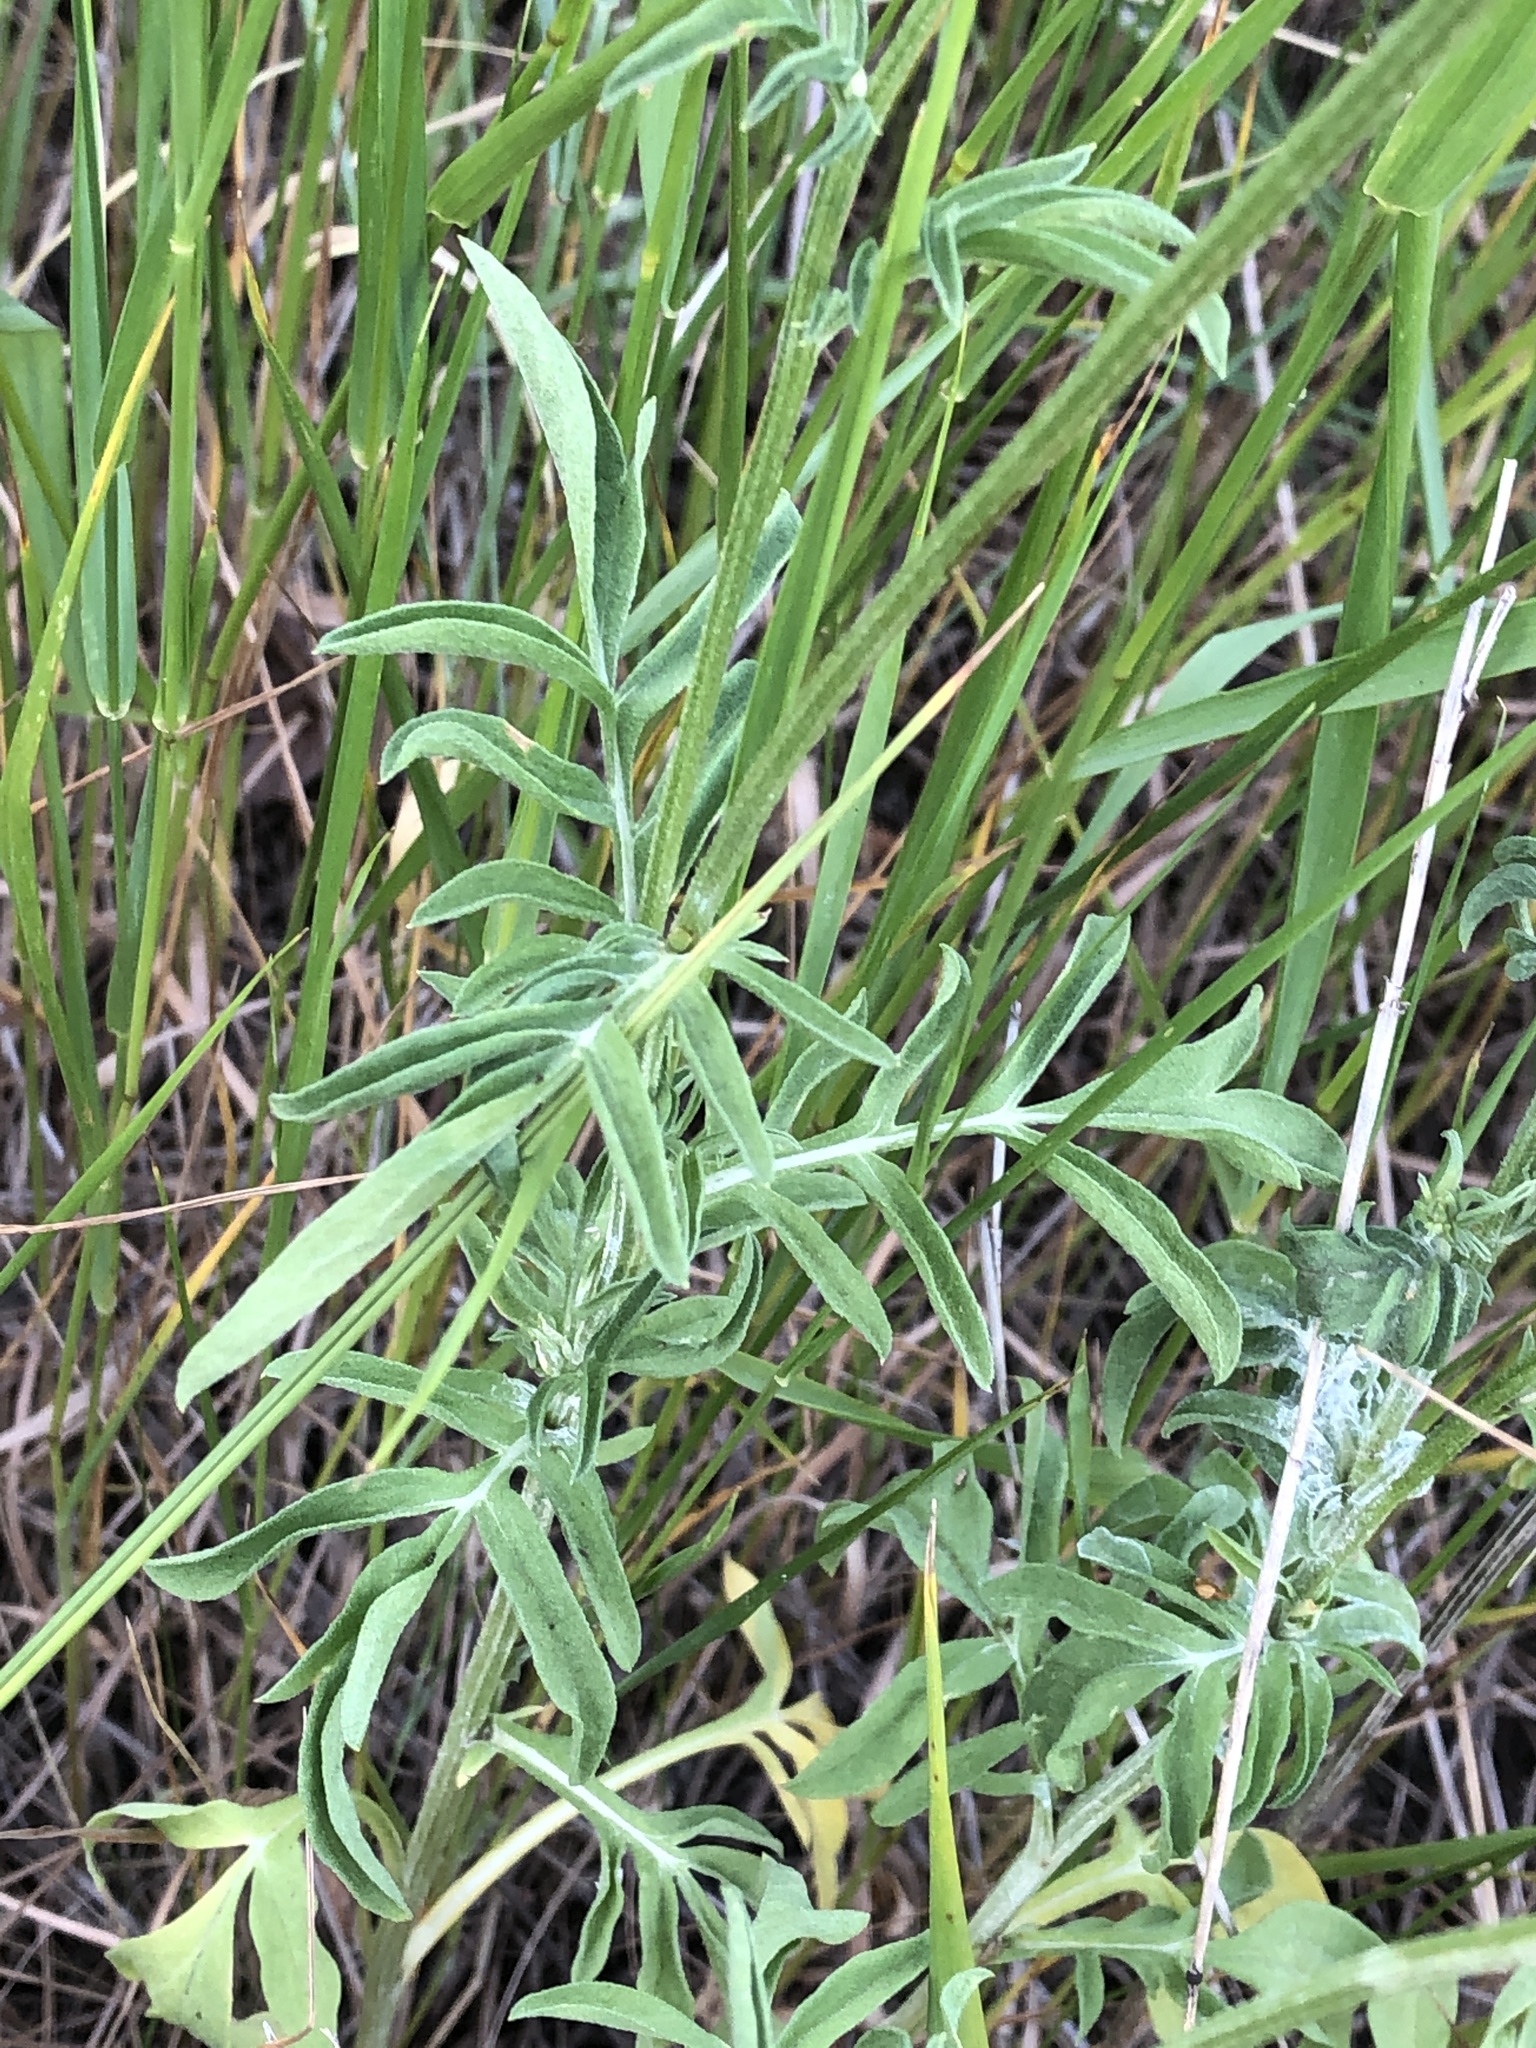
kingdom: Plantae
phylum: Tracheophyta
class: Magnoliopsida
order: Asterales
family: Asteraceae
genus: Ratibida
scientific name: Ratibida columnifera
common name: Prairie coneflower
